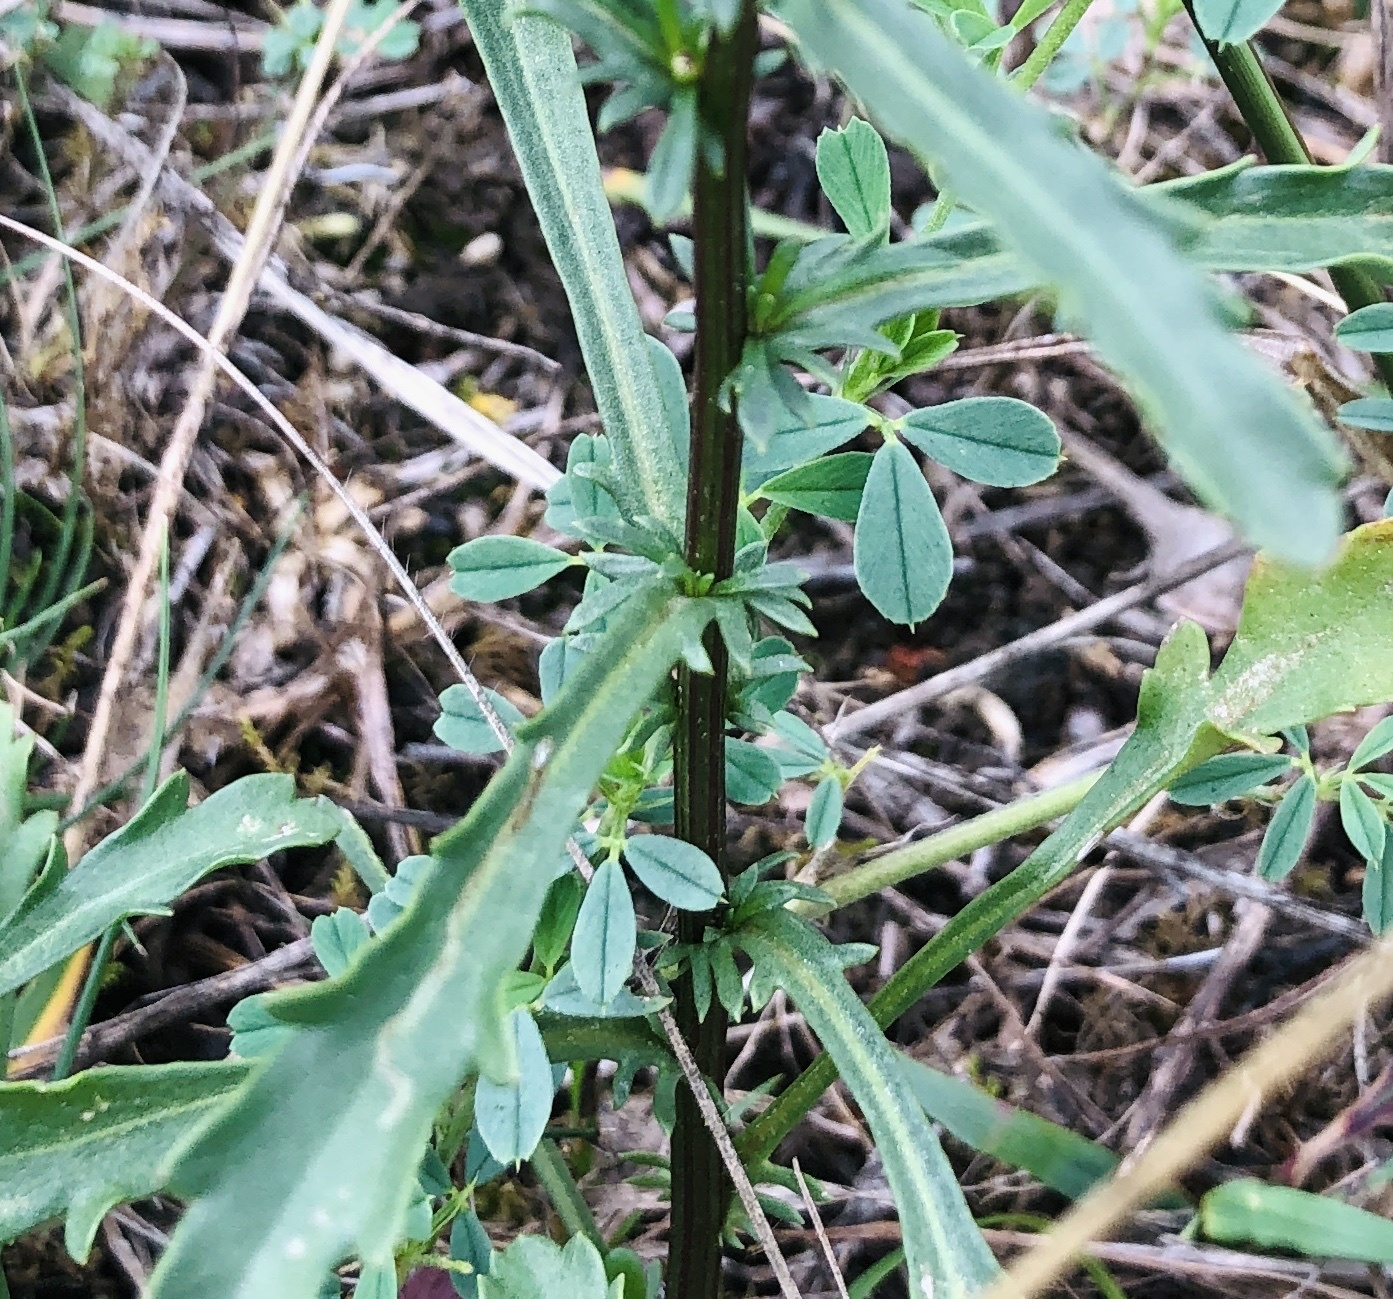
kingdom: Plantae
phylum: Tracheophyta
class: Magnoliopsida
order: Asterales
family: Asteraceae
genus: Leucanthemum
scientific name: Leucanthemum vulgare
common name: Oxeye daisy
